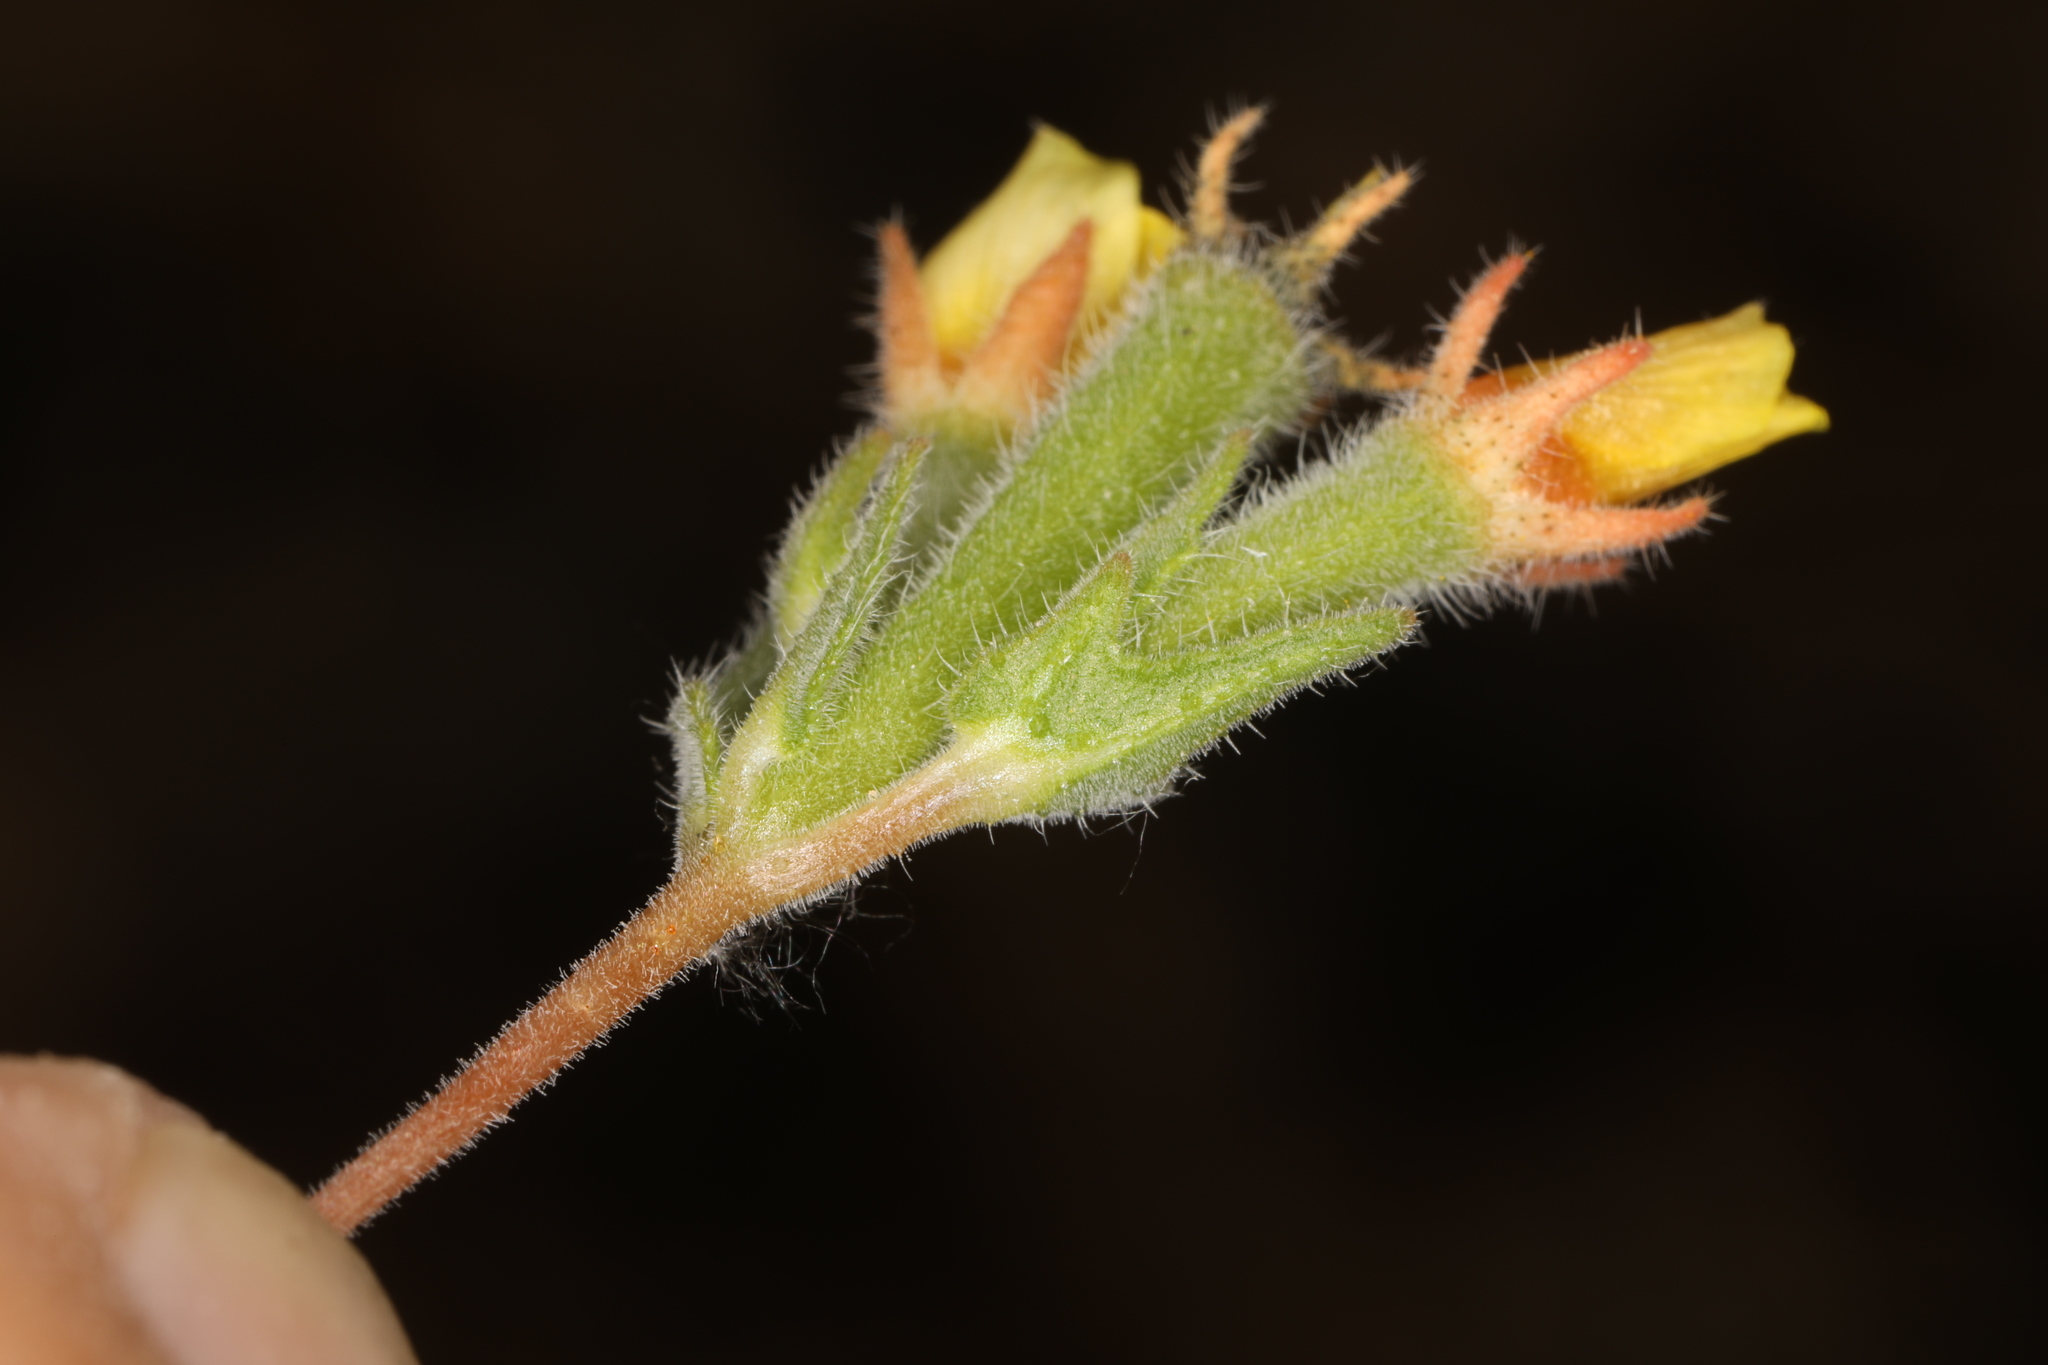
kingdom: Plantae
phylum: Tracheophyta
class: Magnoliopsida
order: Cornales
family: Loasaceae
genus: Mentzelia
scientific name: Mentzelia montana
